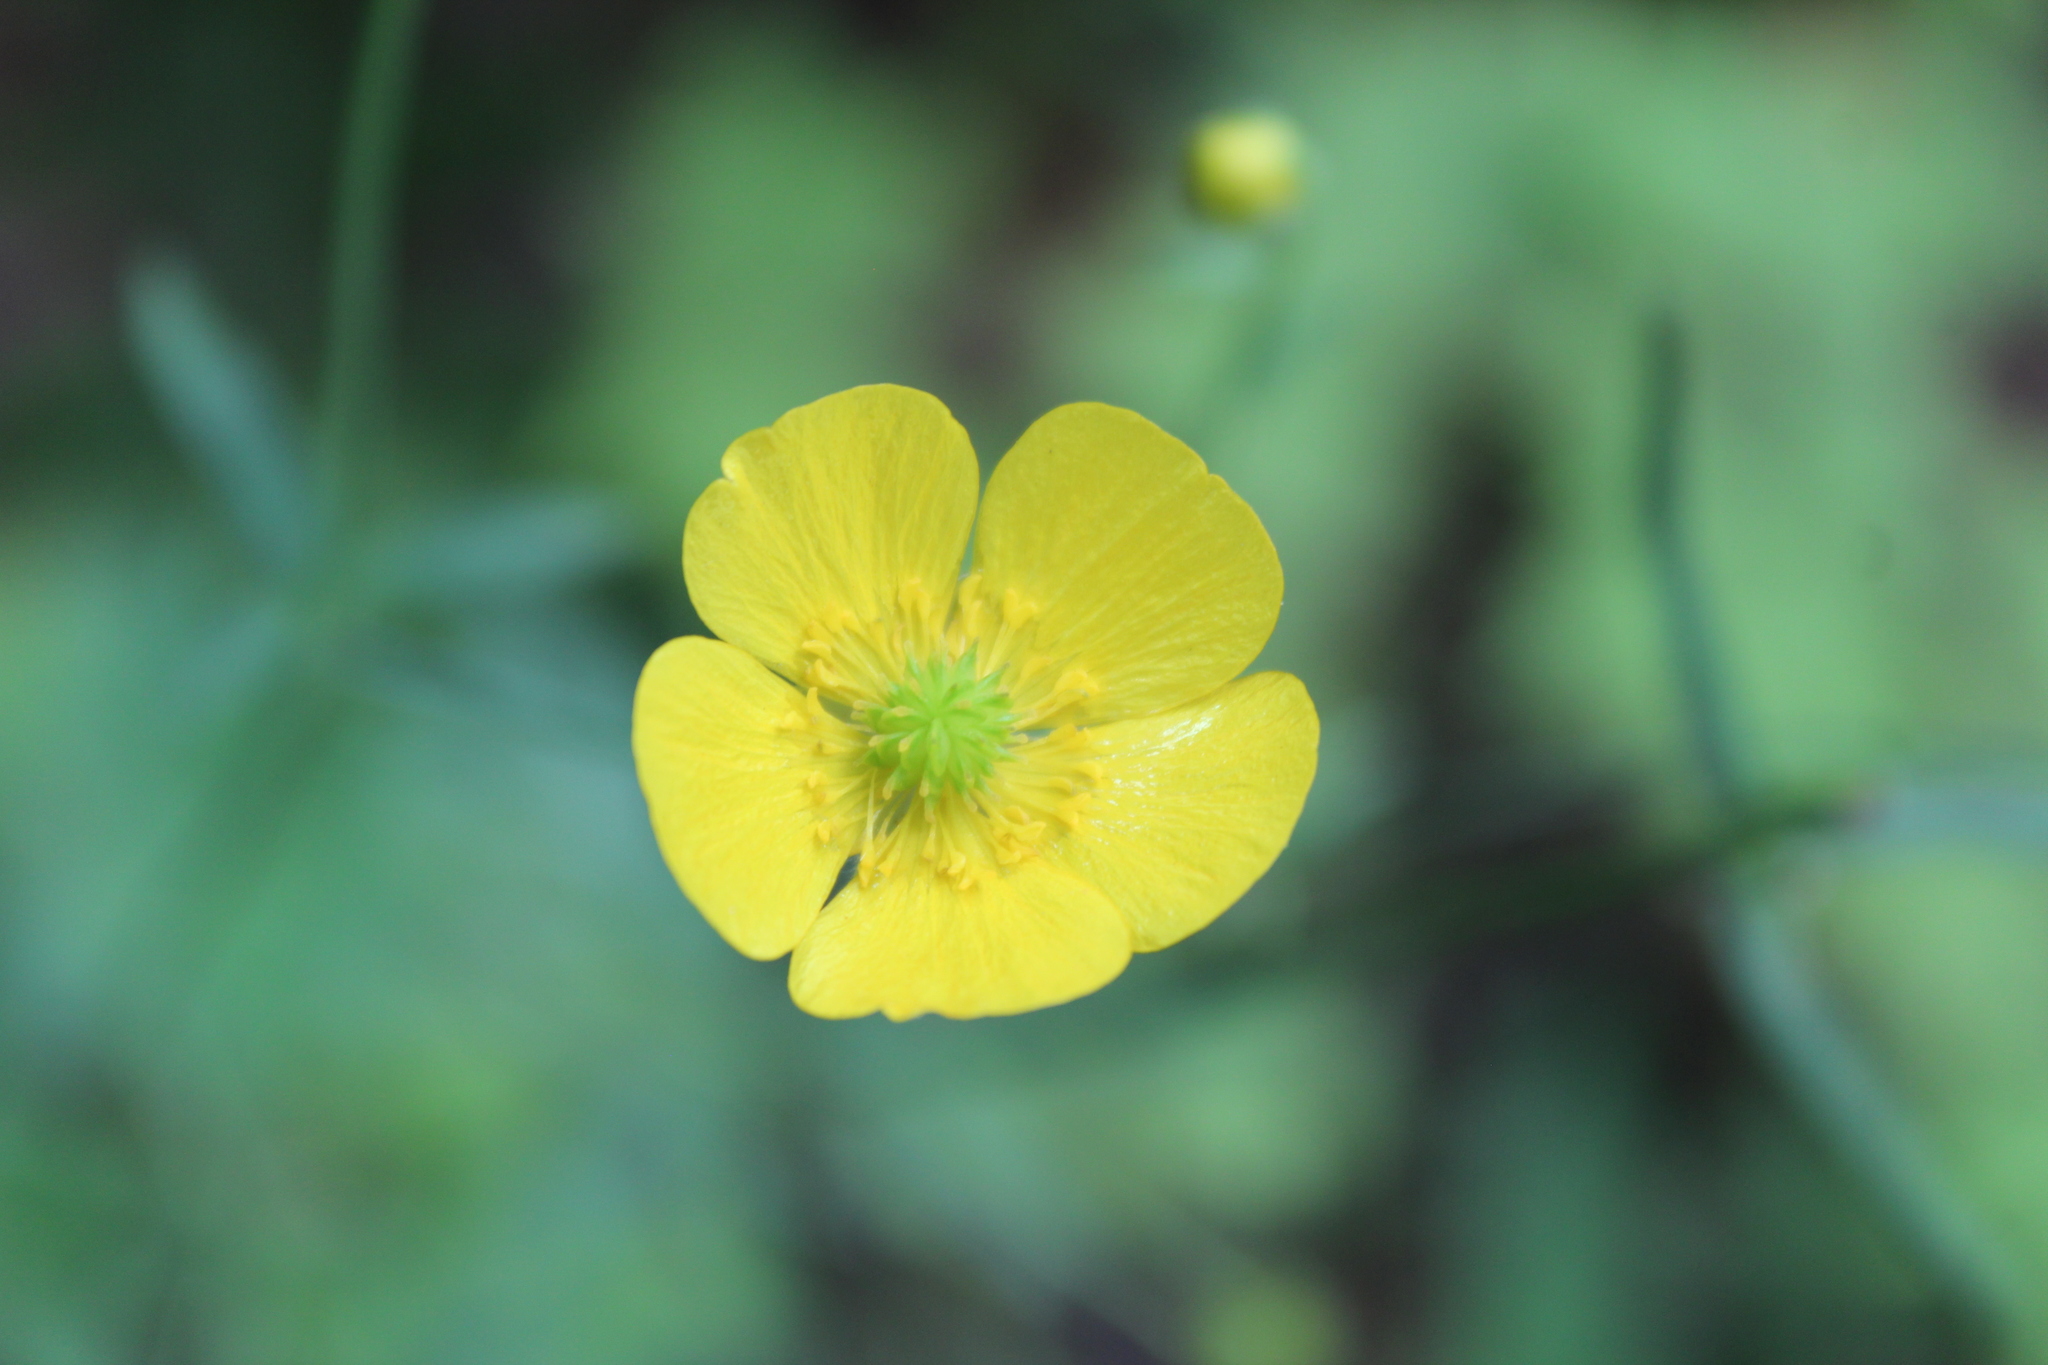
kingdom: Plantae
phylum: Tracheophyta
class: Magnoliopsida
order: Ranunculales
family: Ranunculaceae
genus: Ranunculus
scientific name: Ranunculus acris
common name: Meadow buttercup
